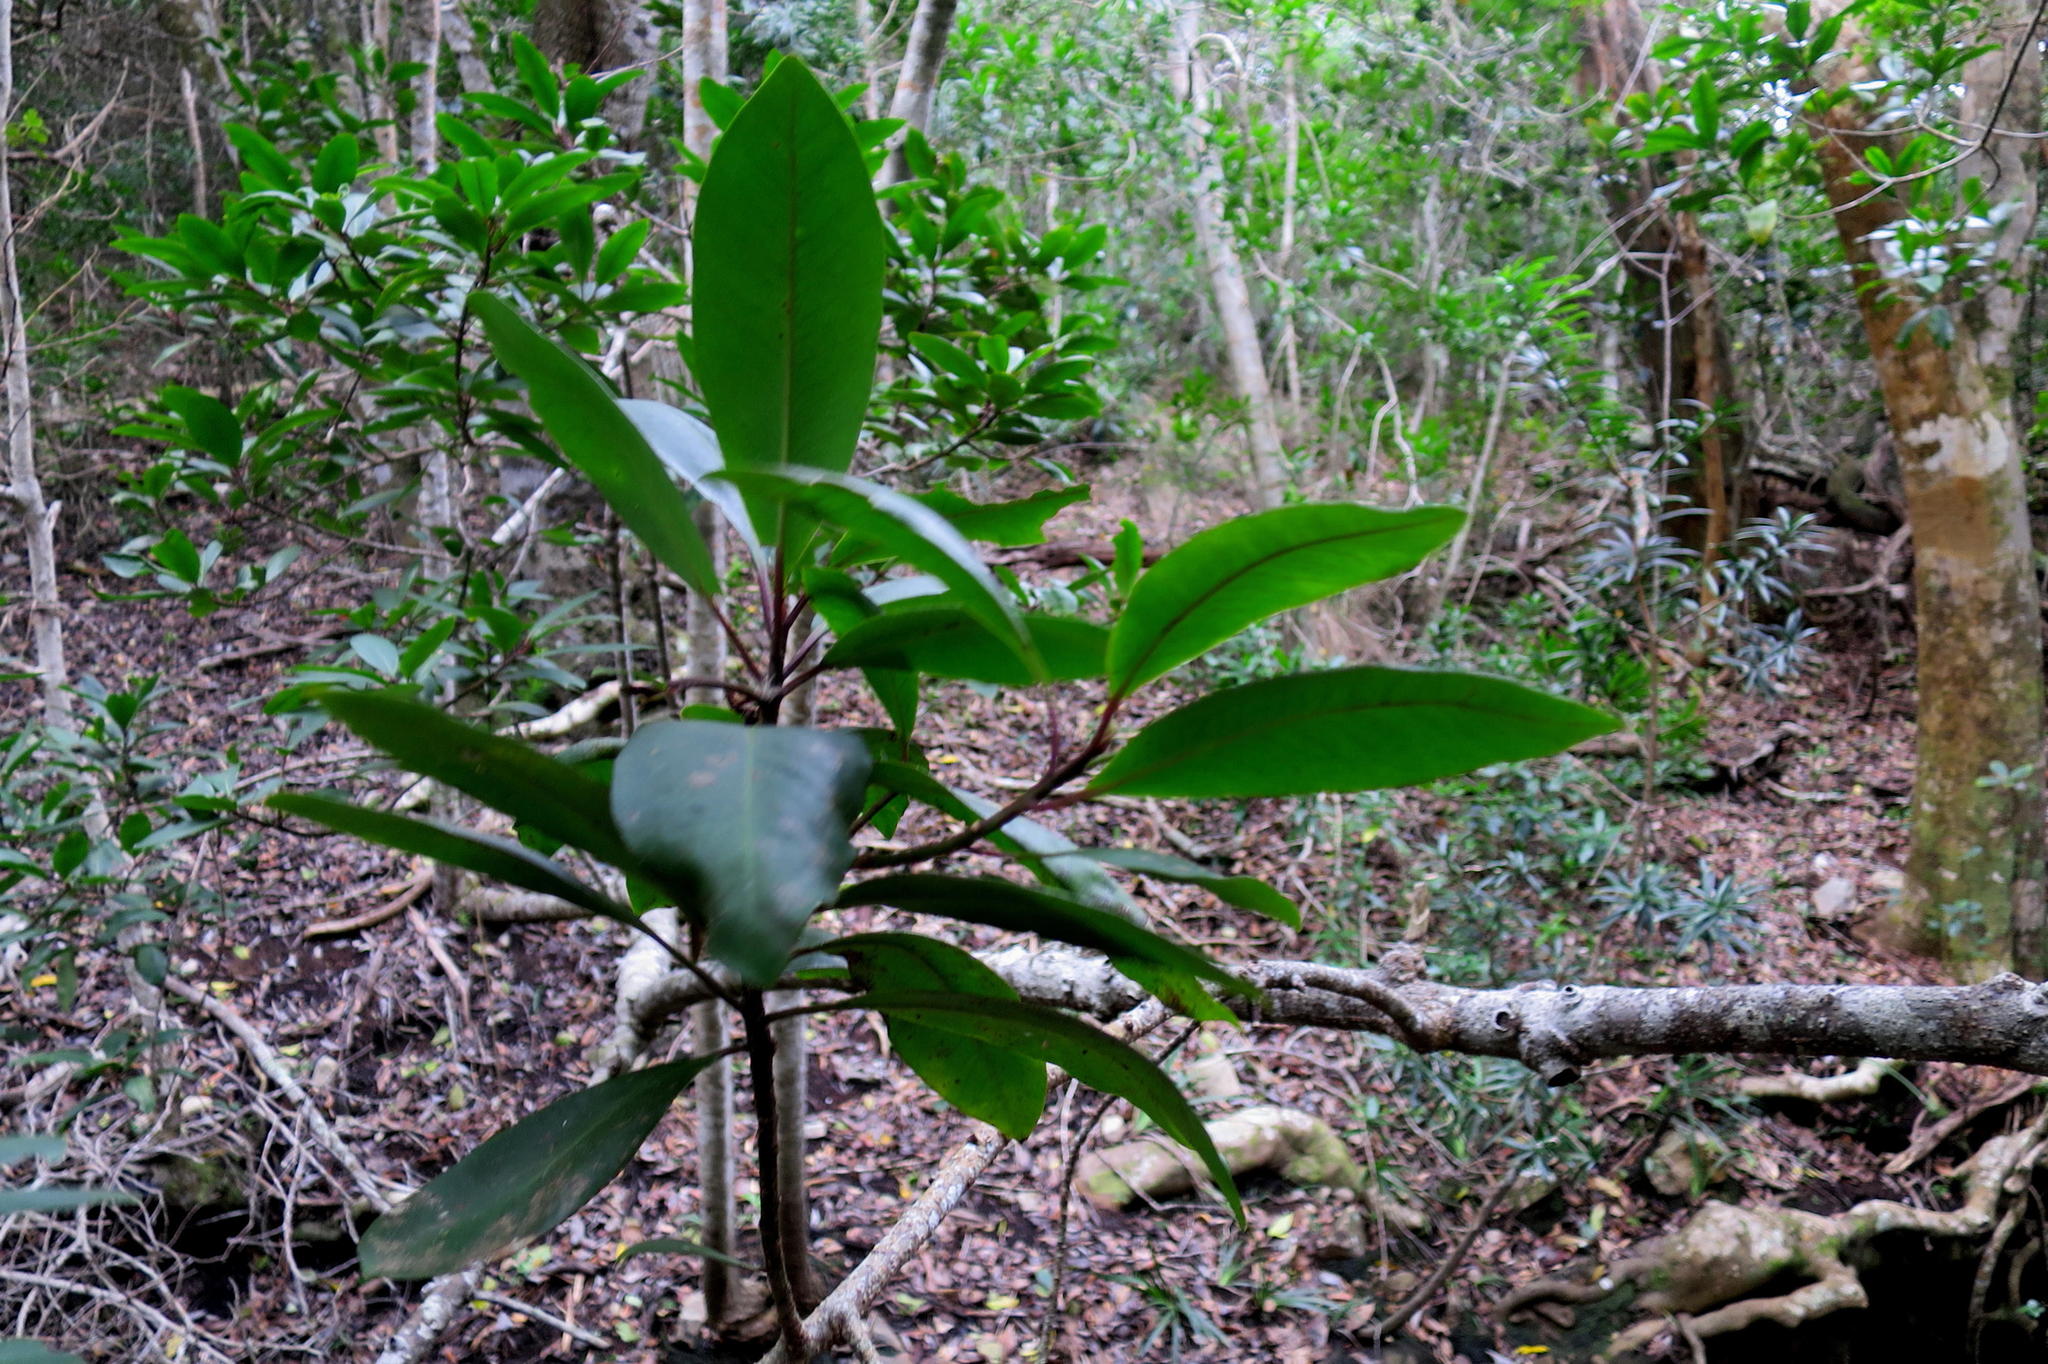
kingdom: Plantae
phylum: Tracheophyta
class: Magnoliopsida
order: Ericales
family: Primulaceae
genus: Myrsine
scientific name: Myrsine melanophloeos
